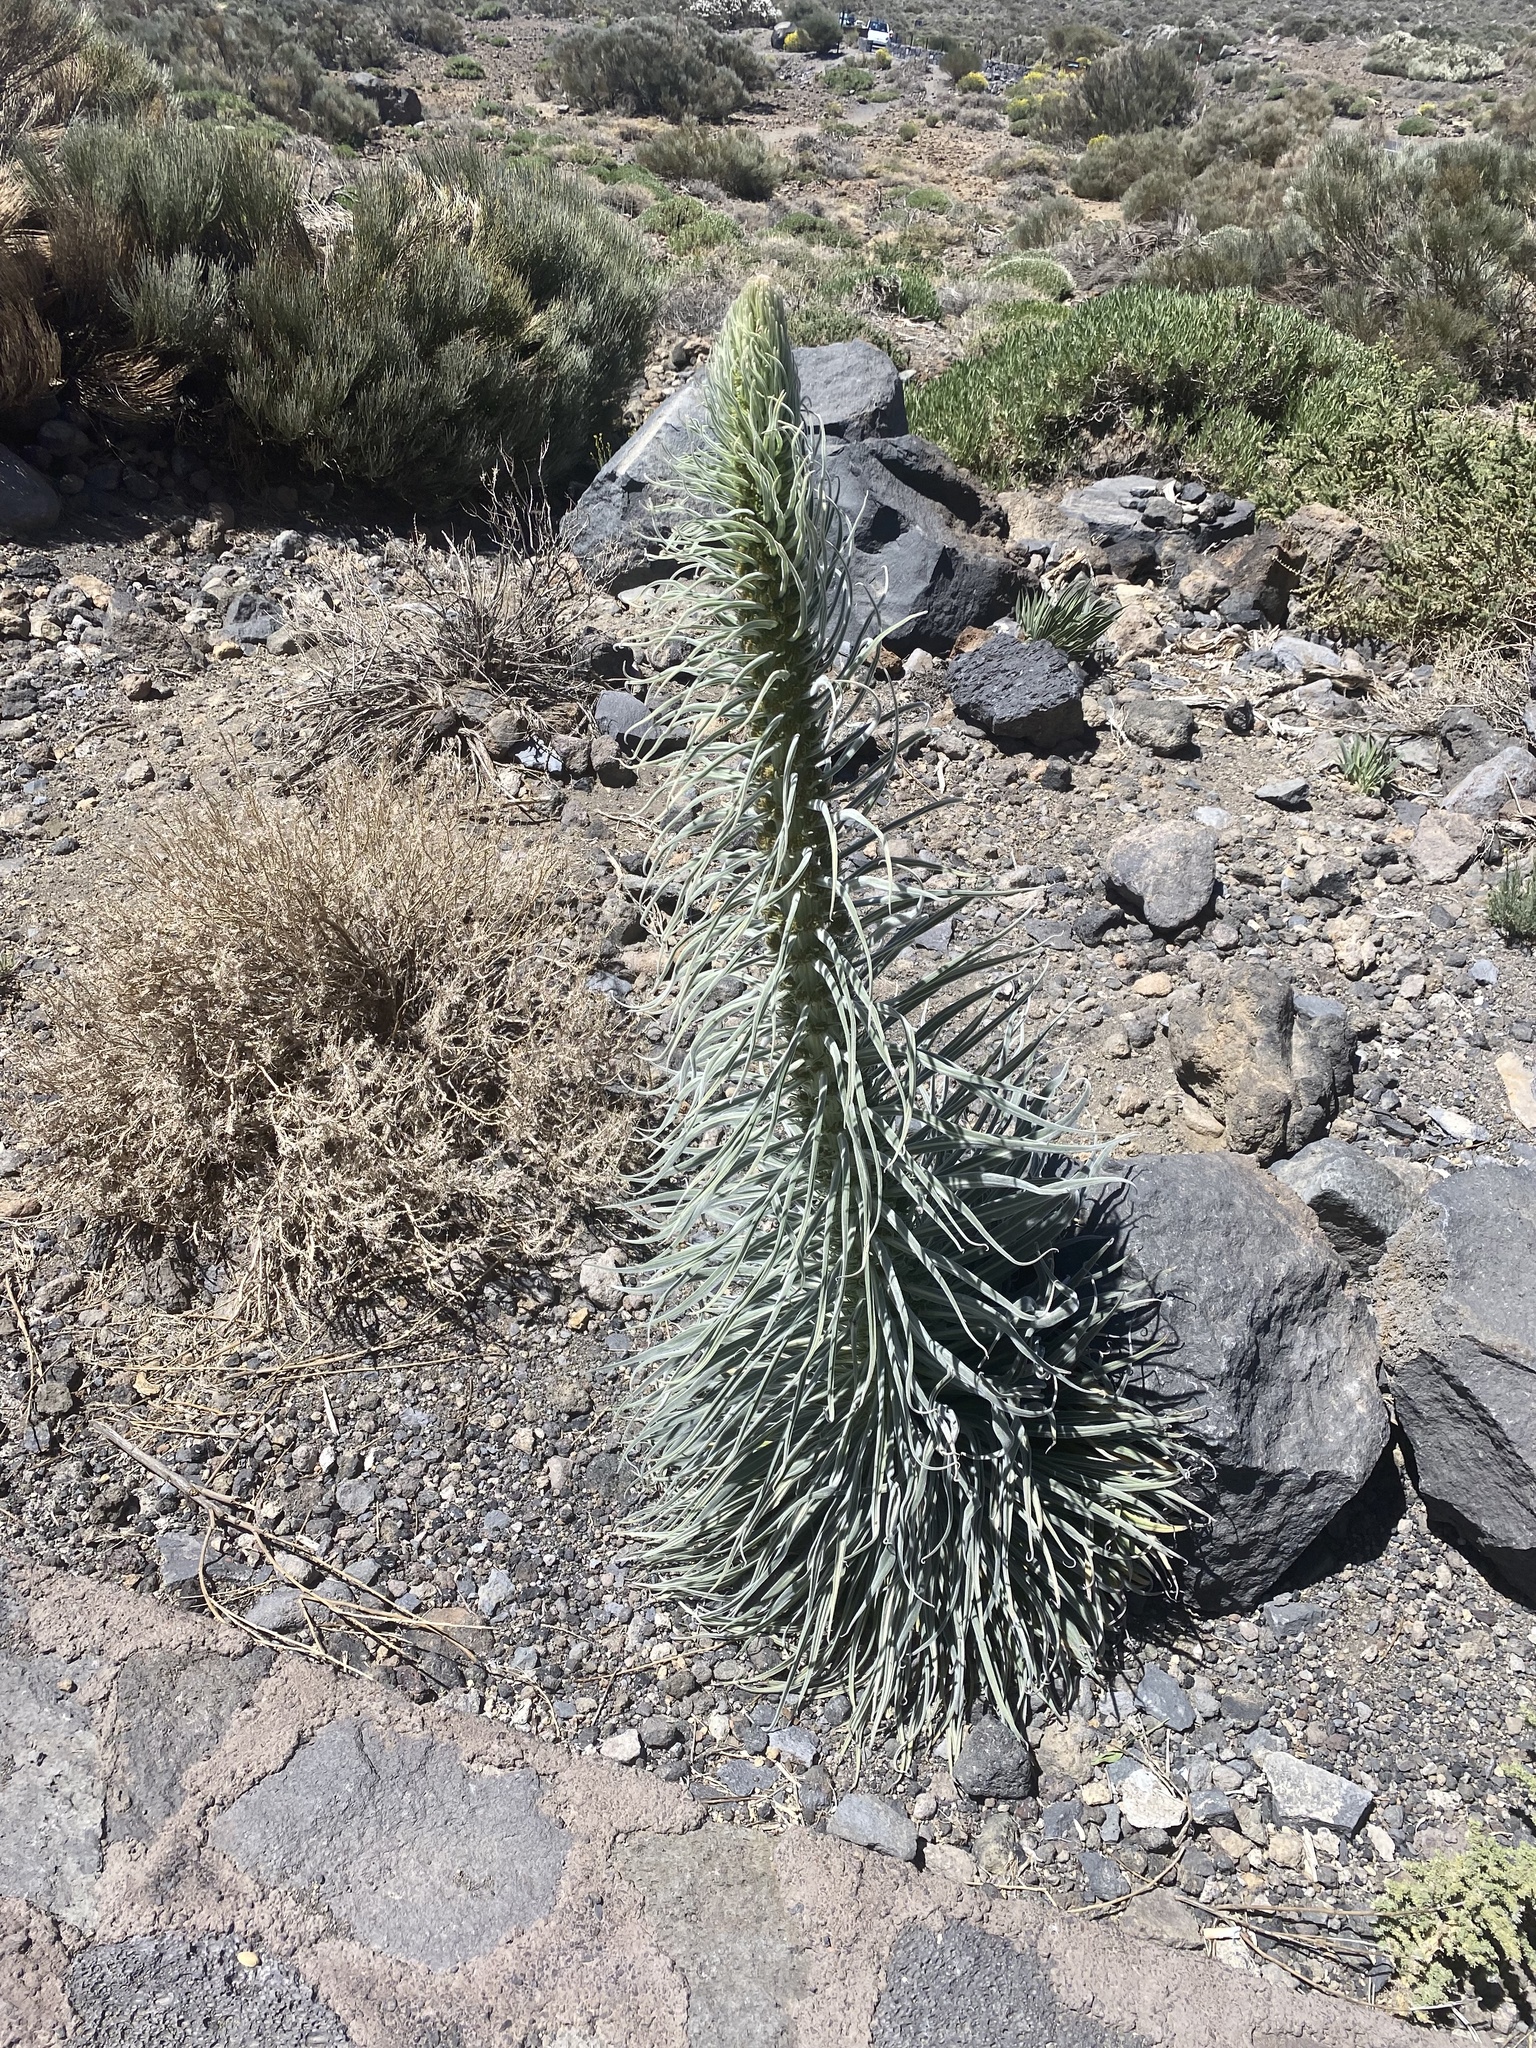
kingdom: Plantae
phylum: Tracheophyta
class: Magnoliopsida
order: Boraginales
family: Boraginaceae
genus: Echium
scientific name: Echium wildpretii
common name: Tower-of-jewels
